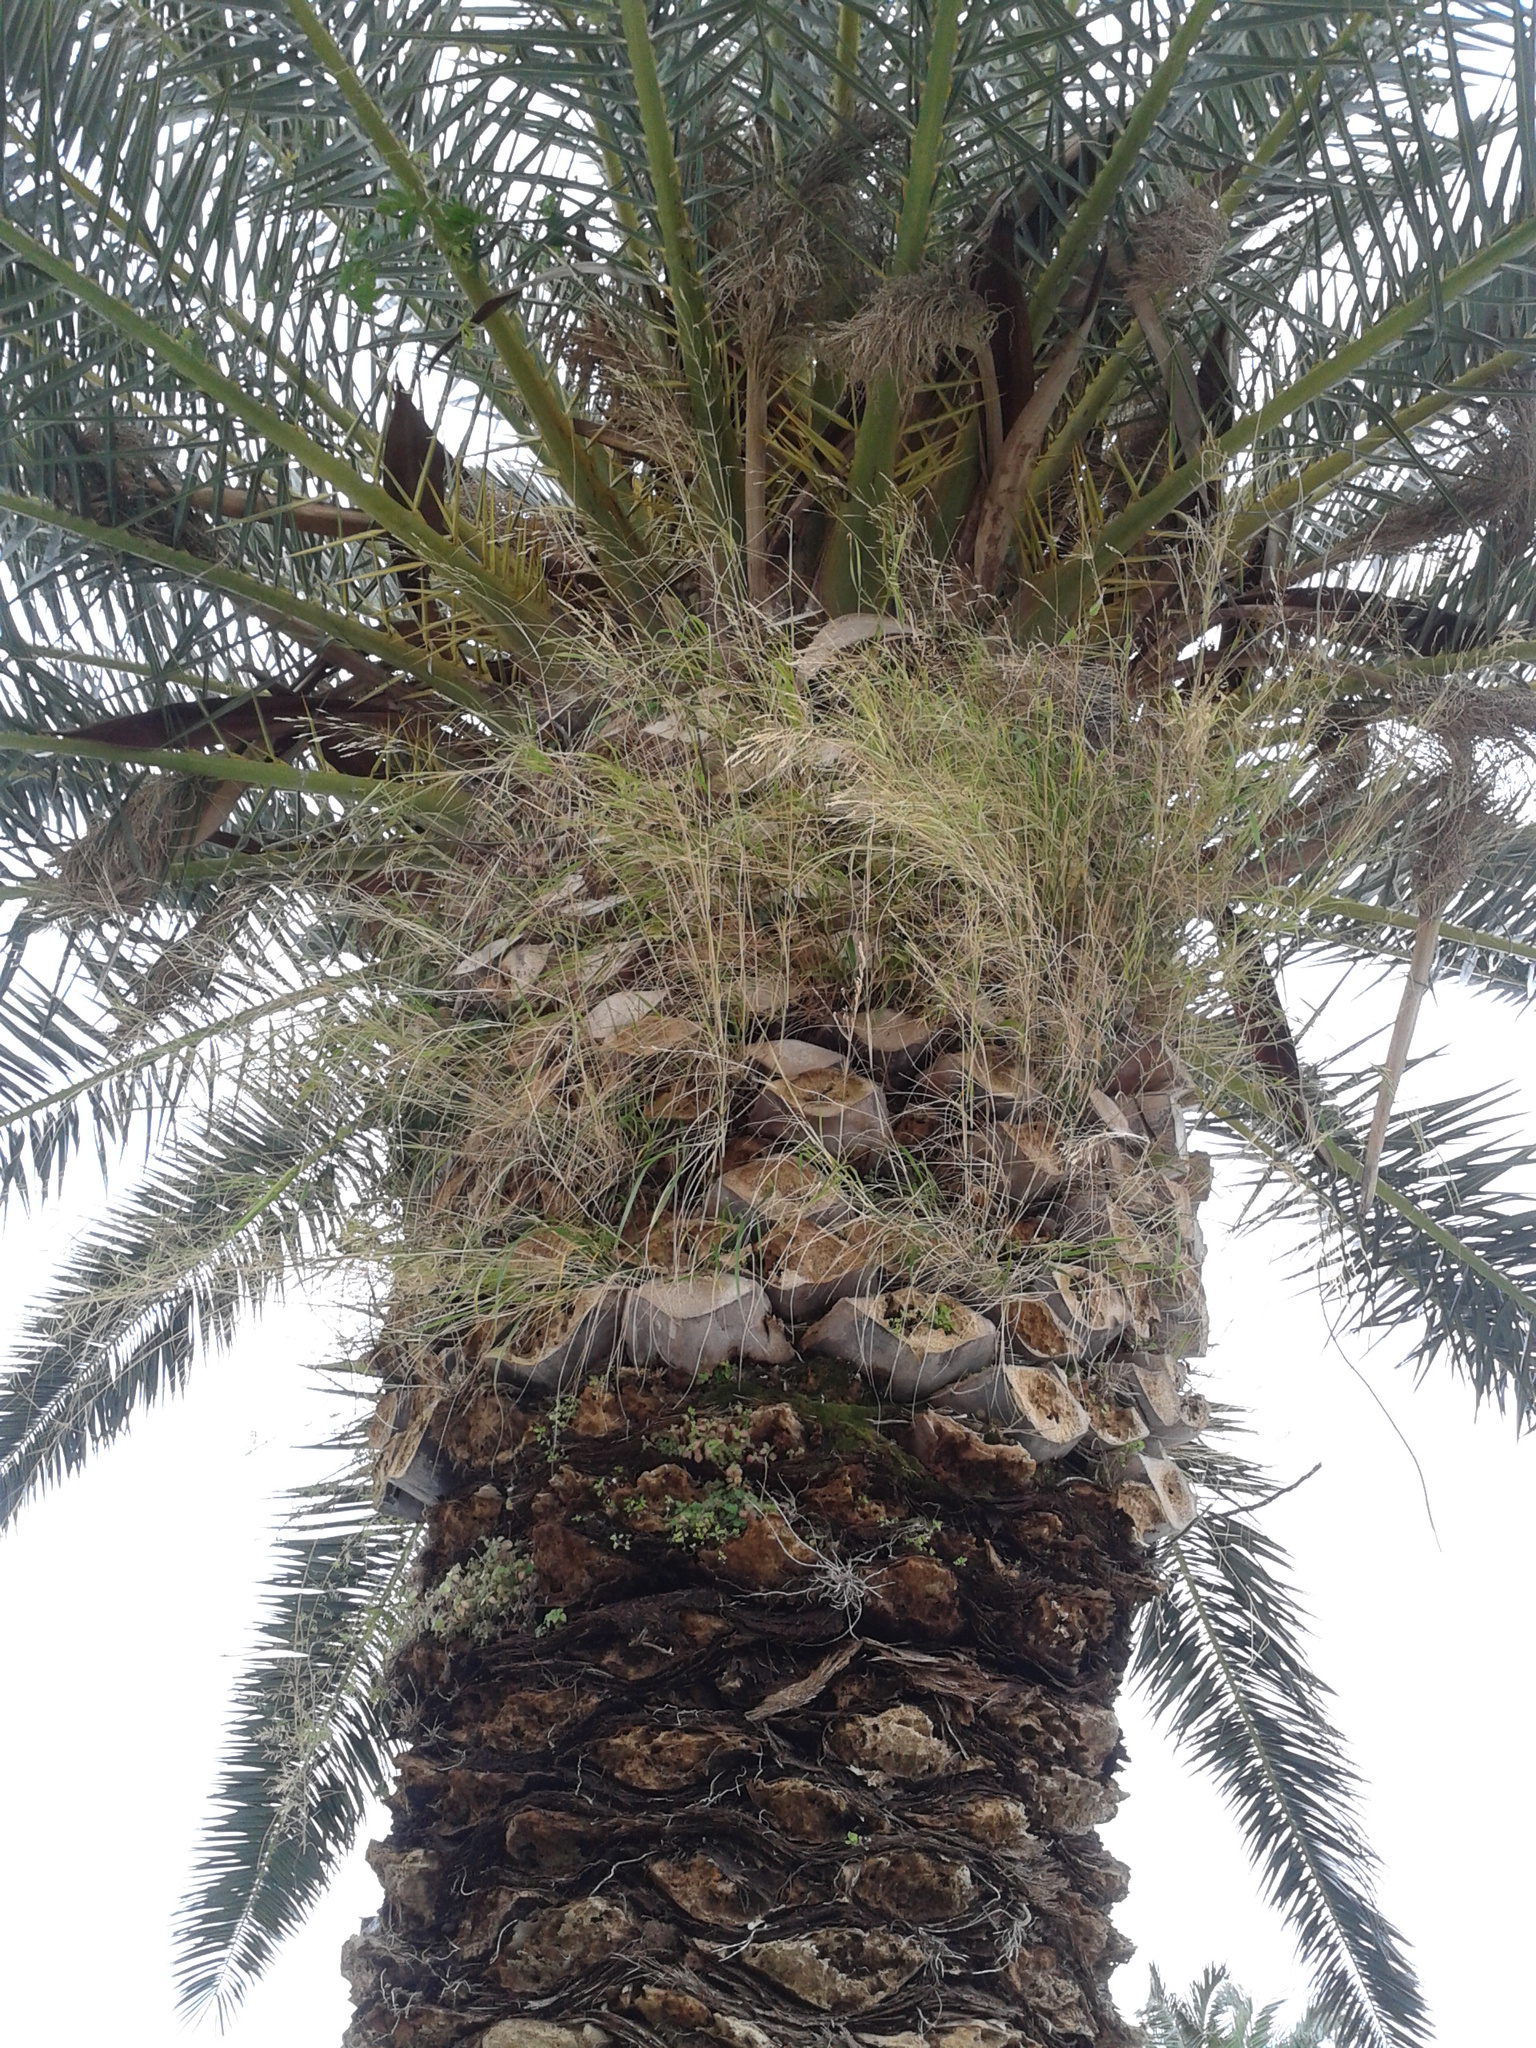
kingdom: Plantae
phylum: Tracheophyta
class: Liliopsida
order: Poales
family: Poaceae
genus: Oloptum
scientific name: Oloptum miliaceum
